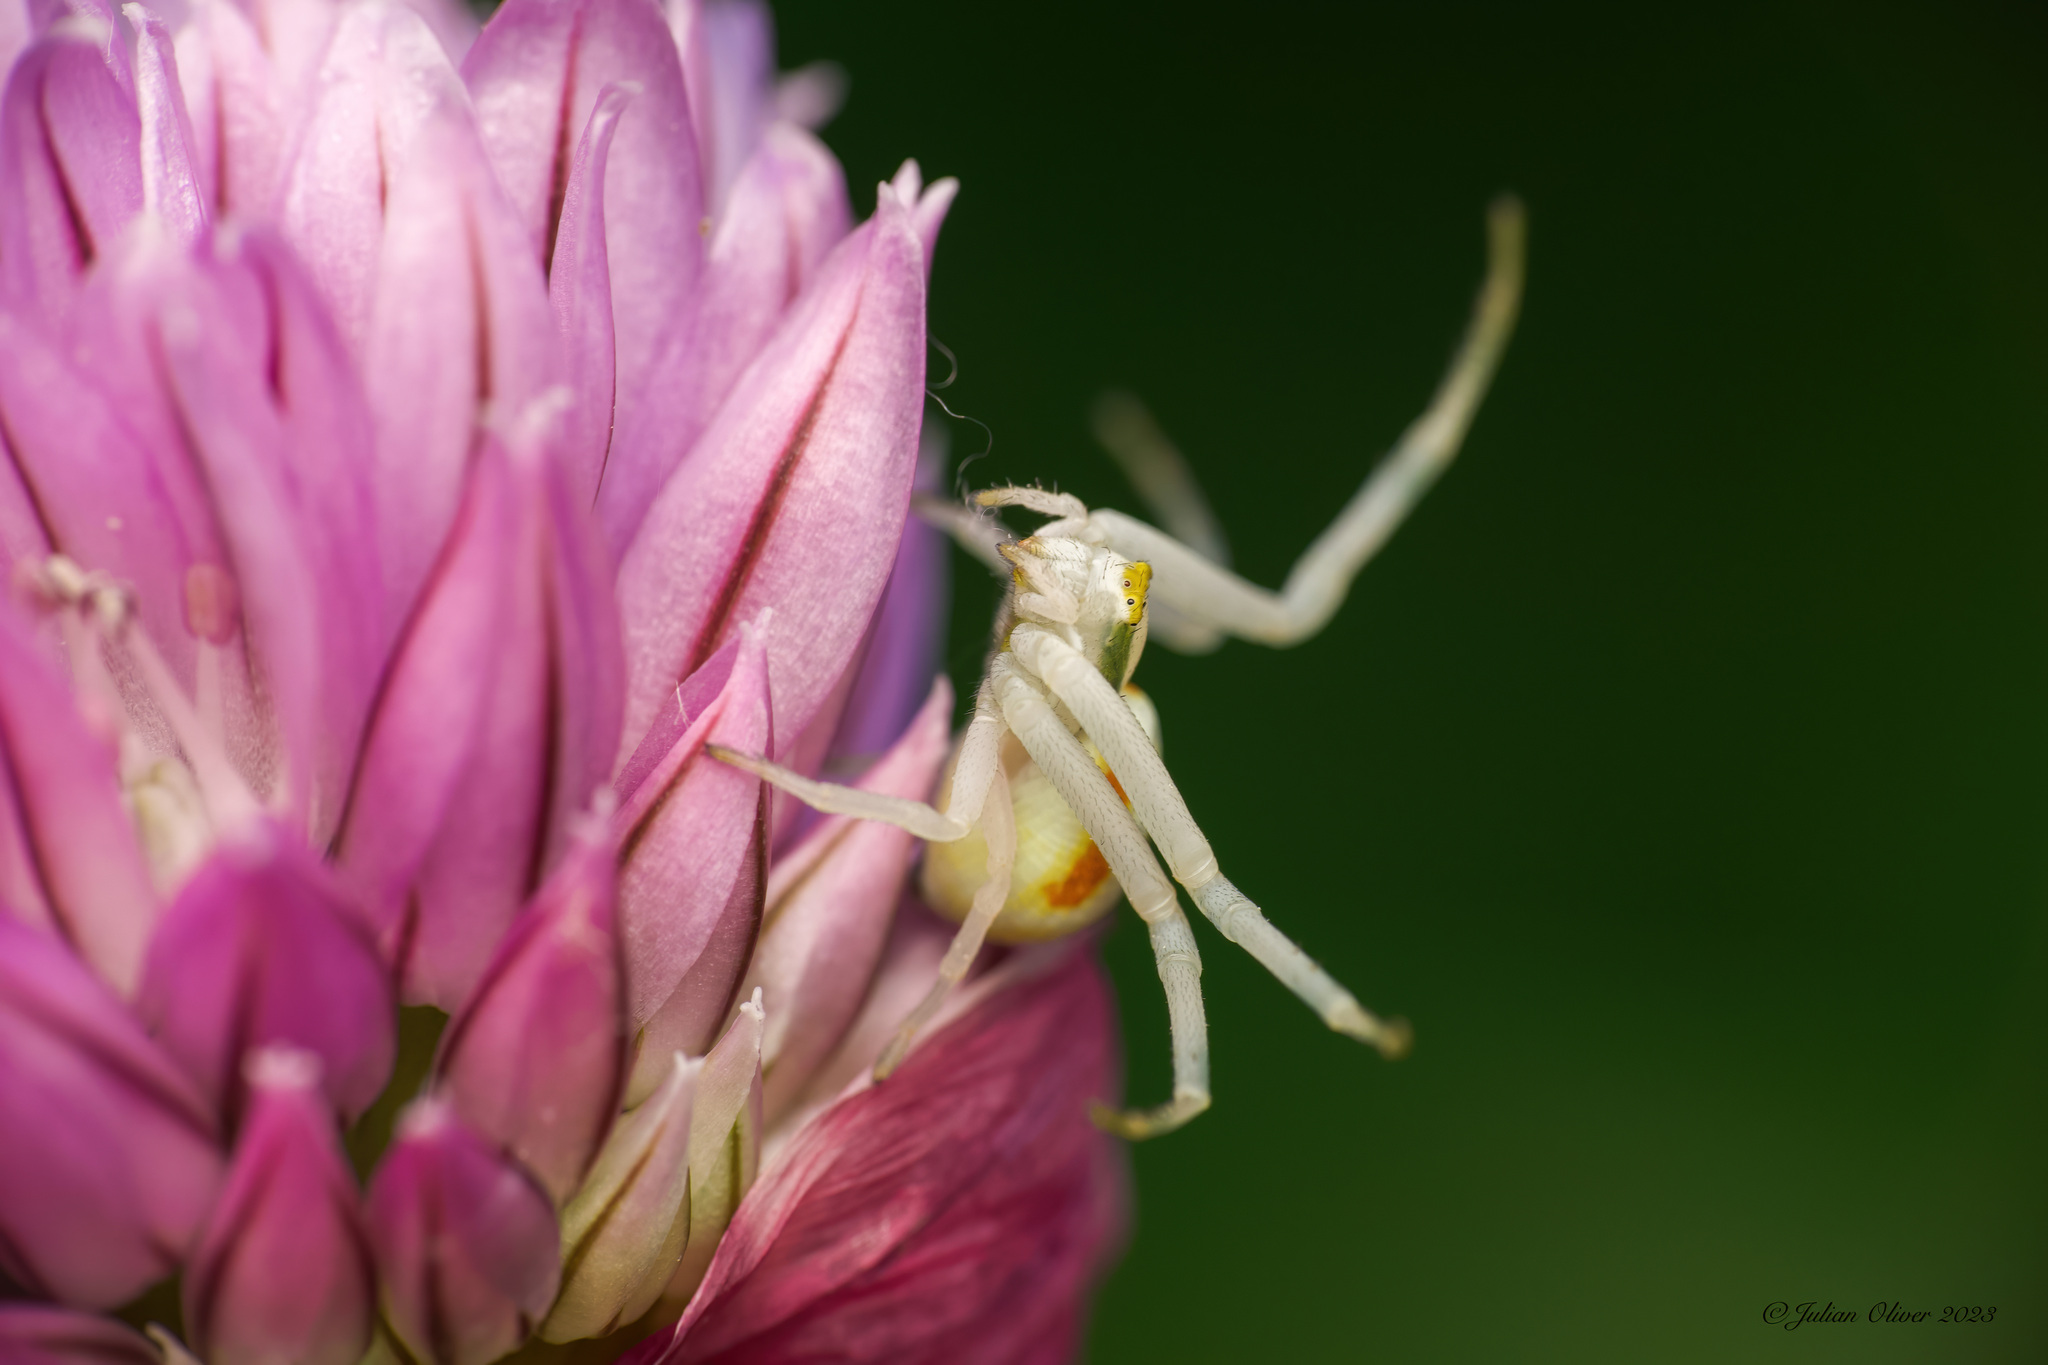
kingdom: Animalia
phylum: Arthropoda
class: Arachnida
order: Araneae
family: Thomisidae
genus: Misumena
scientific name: Misumena vatia
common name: Goldenrod crab spider
